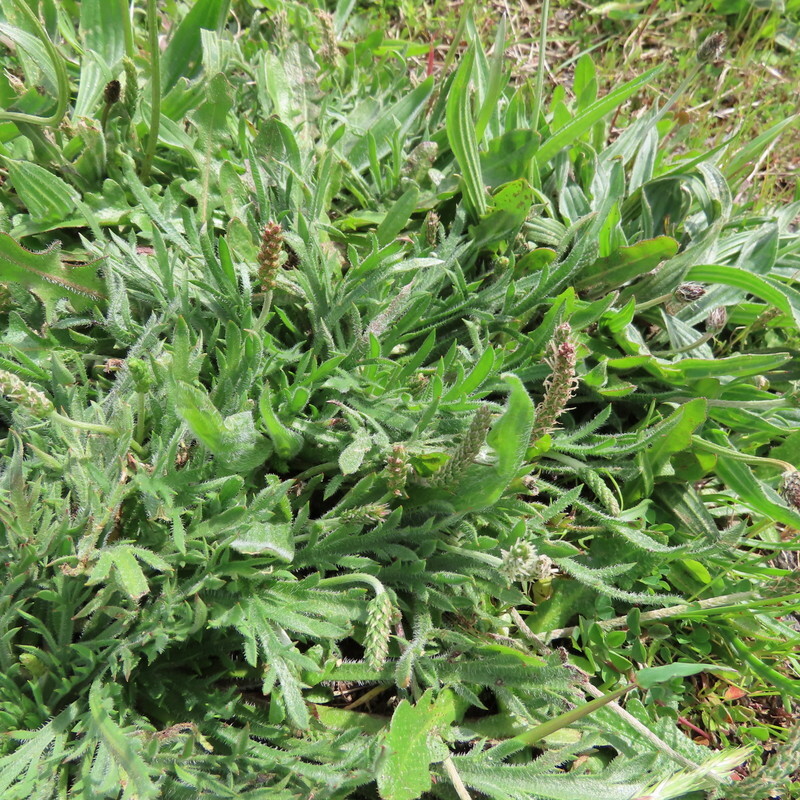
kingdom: Plantae
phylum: Tracheophyta
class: Magnoliopsida
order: Lamiales
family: Plantaginaceae
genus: Plantago
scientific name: Plantago coronopus
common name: Buck's-horn plantain
